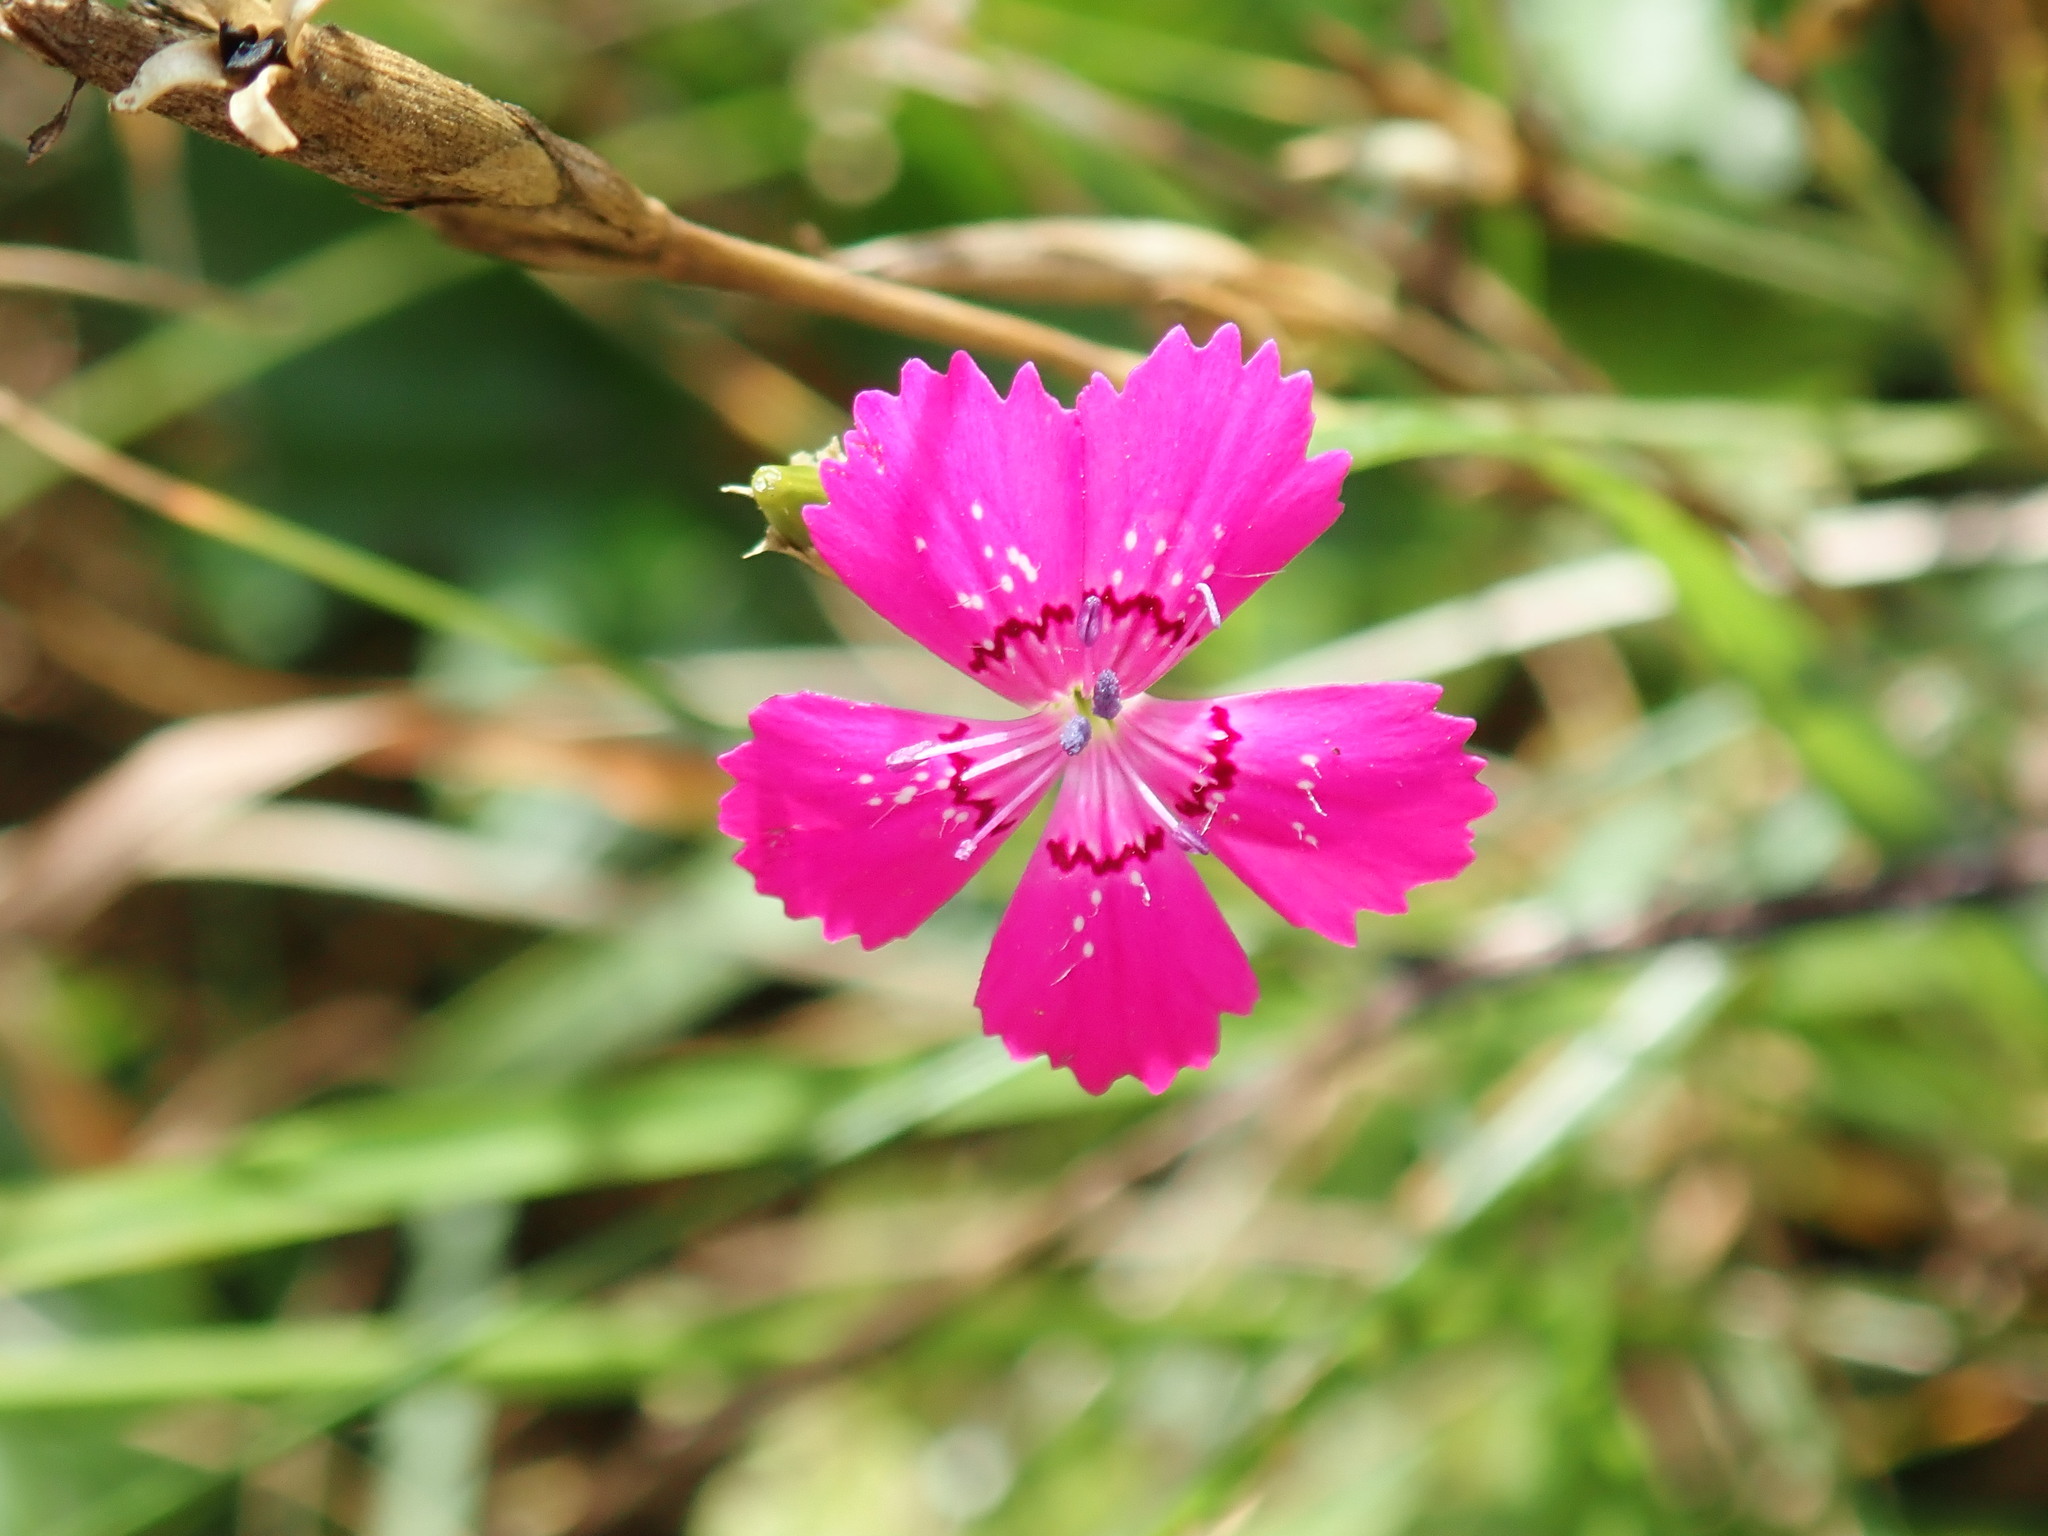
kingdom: Plantae
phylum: Tracheophyta
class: Magnoliopsida
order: Caryophyllales
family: Caryophyllaceae
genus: Dianthus
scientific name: Dianthus deltoides
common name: Maiden pink
